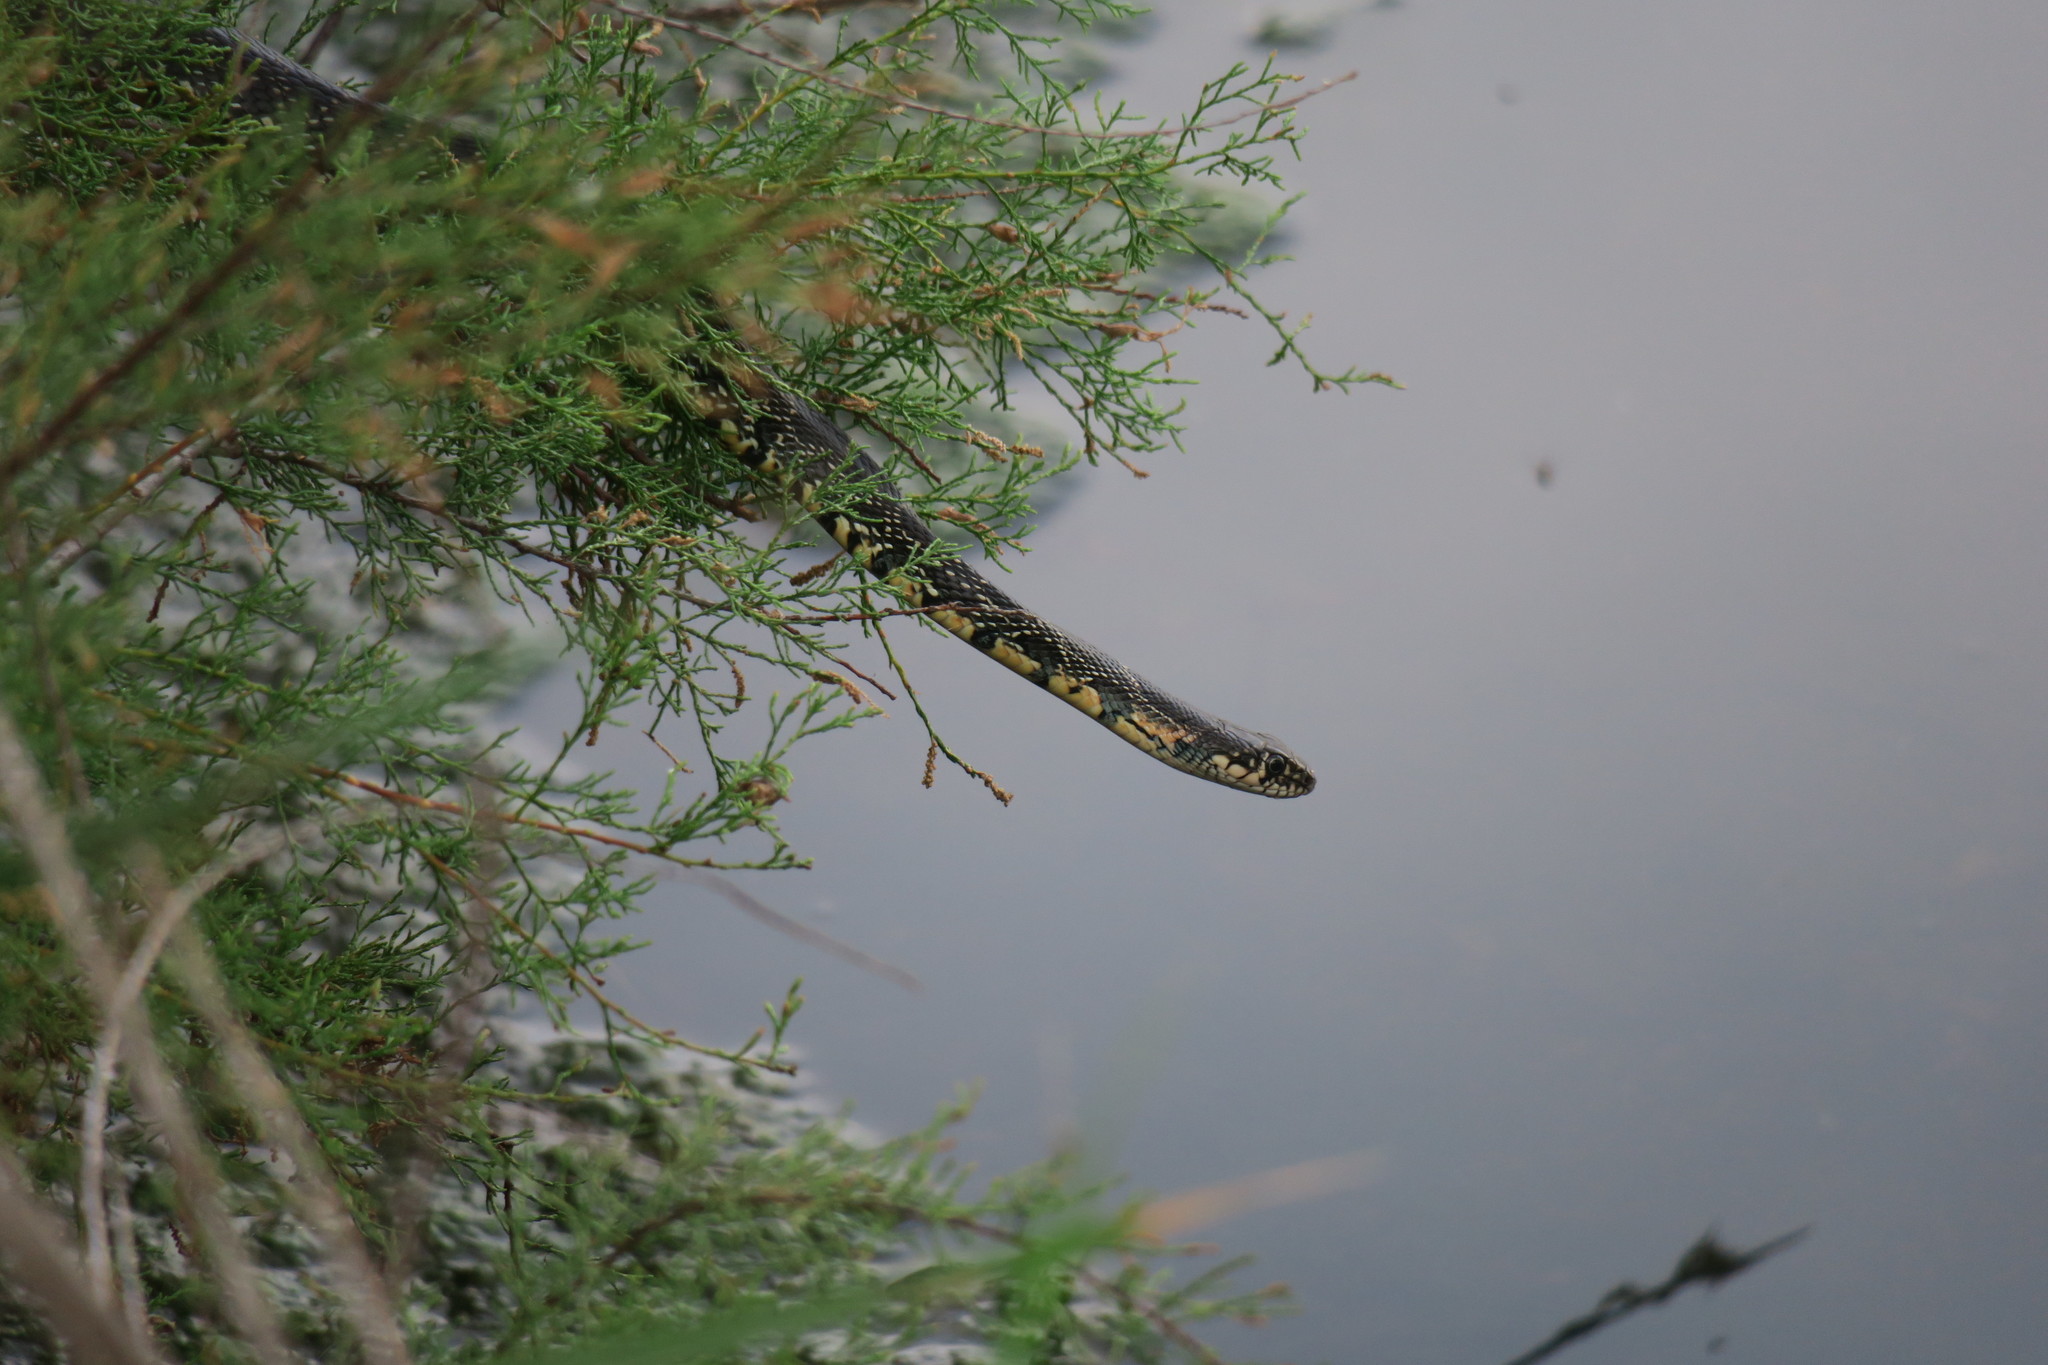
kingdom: Animalia
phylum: Chordata
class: Squamata
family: Colubridae
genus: Hemorrhois
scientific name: Hemorrhois hippocrepis
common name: Horseshoe whip snake
